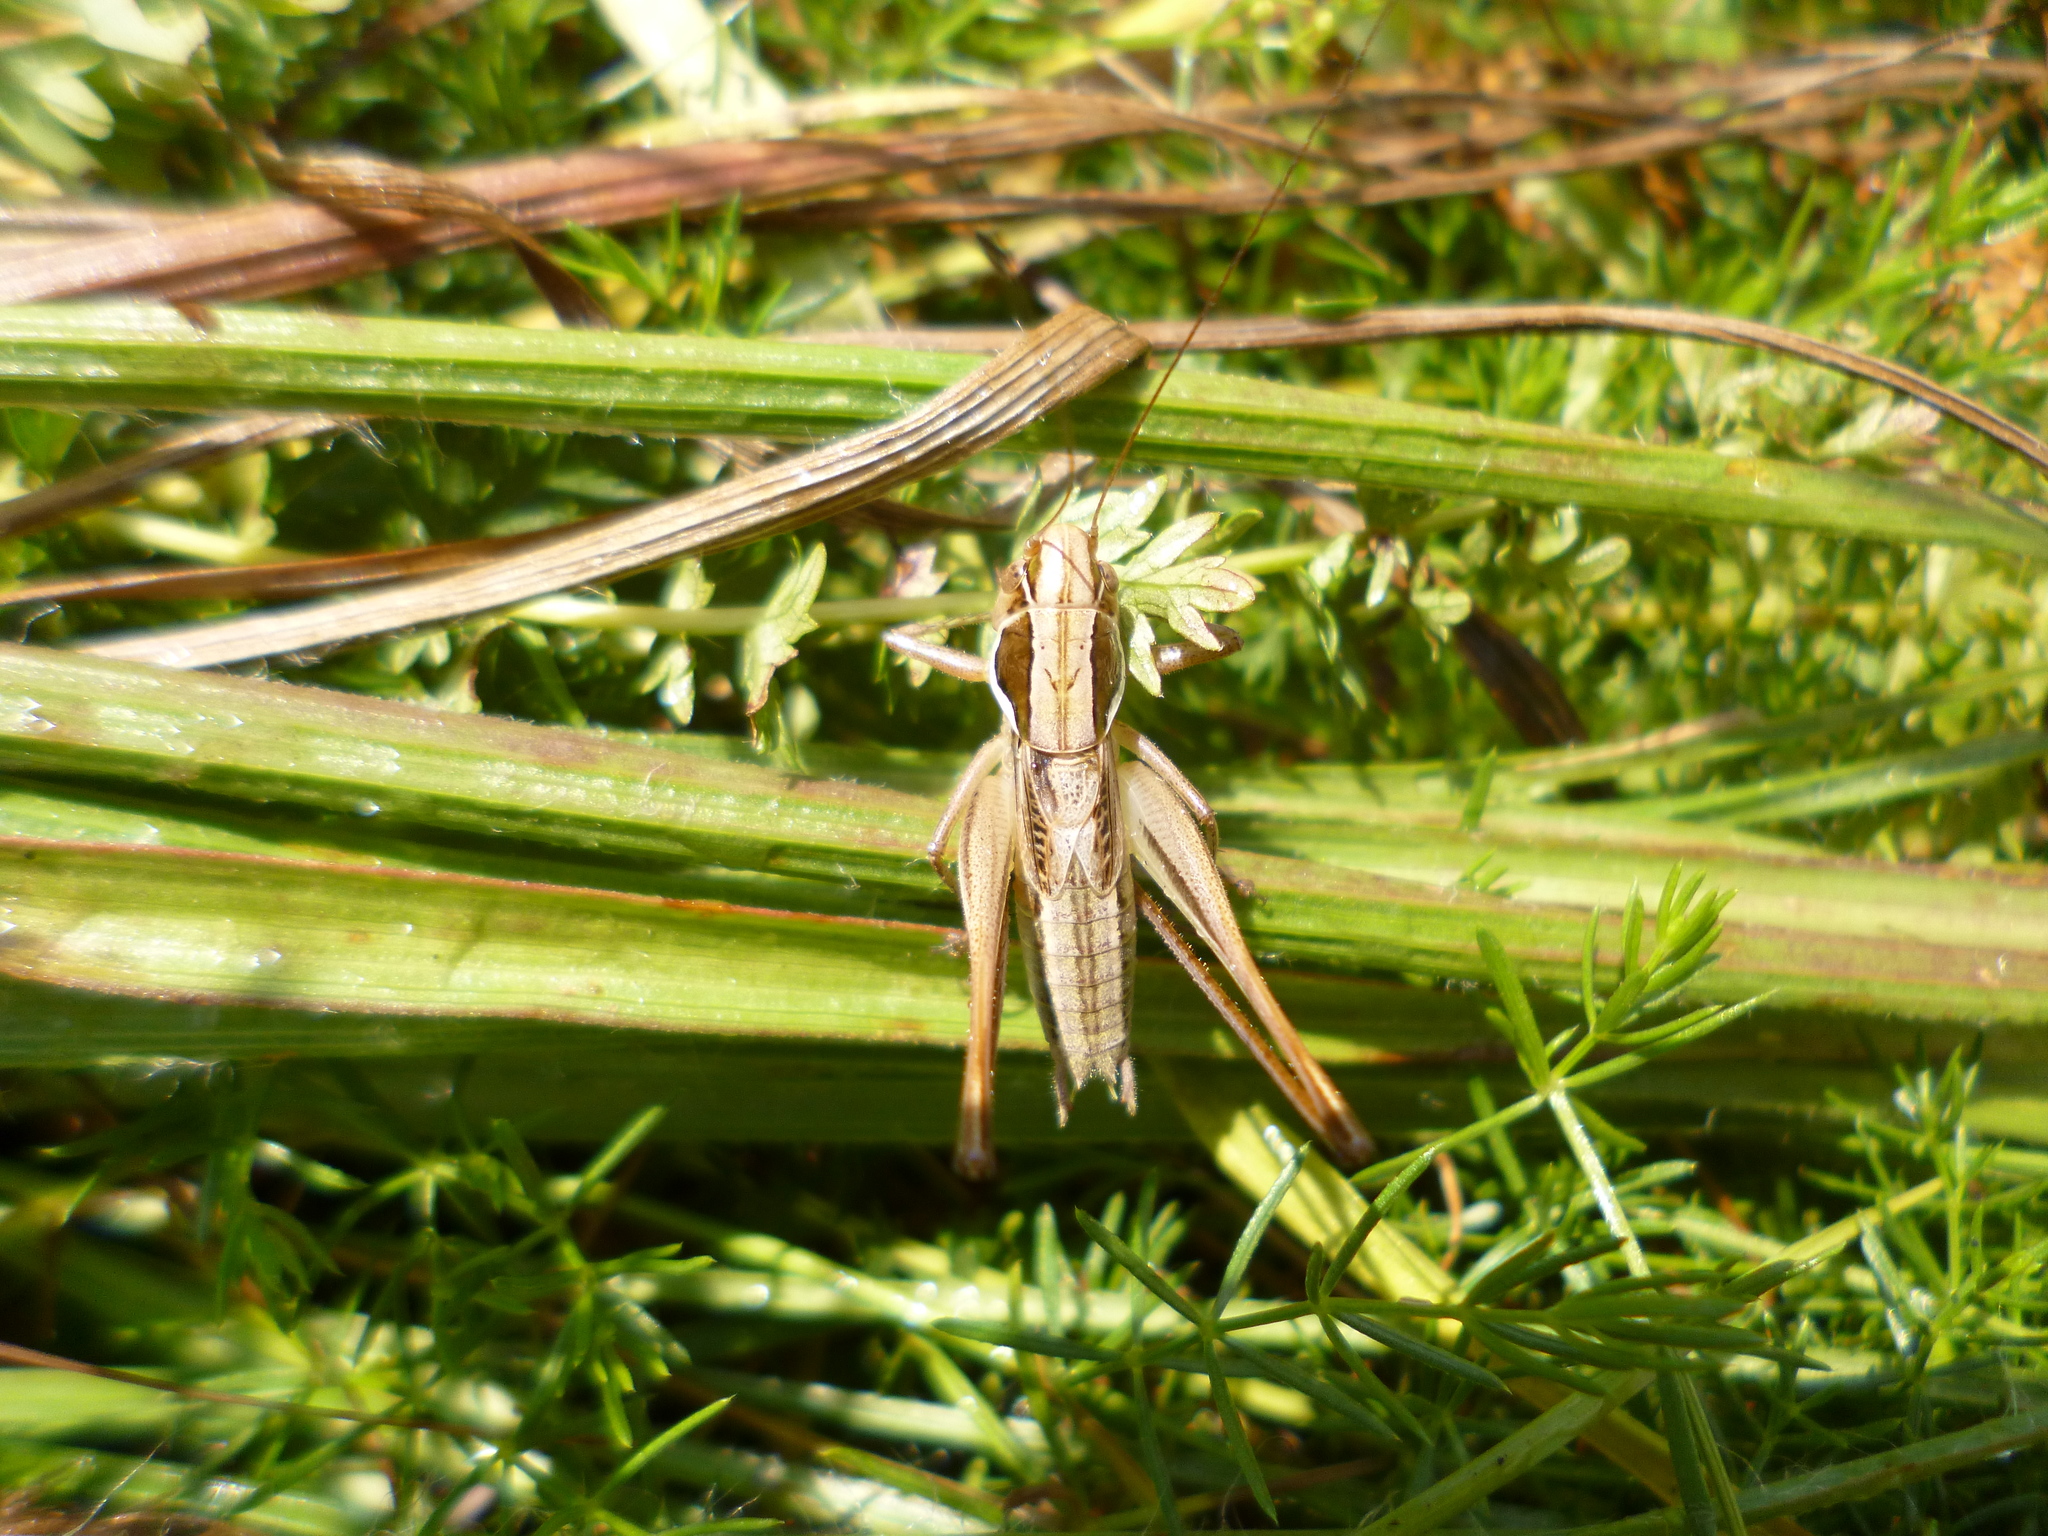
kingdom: Animalia
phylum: Arthropoda
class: Insecta
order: Orthoptera
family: Tettigoniidae
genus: Modestana
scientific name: Modestana modesta
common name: Common modest bush-cricket
